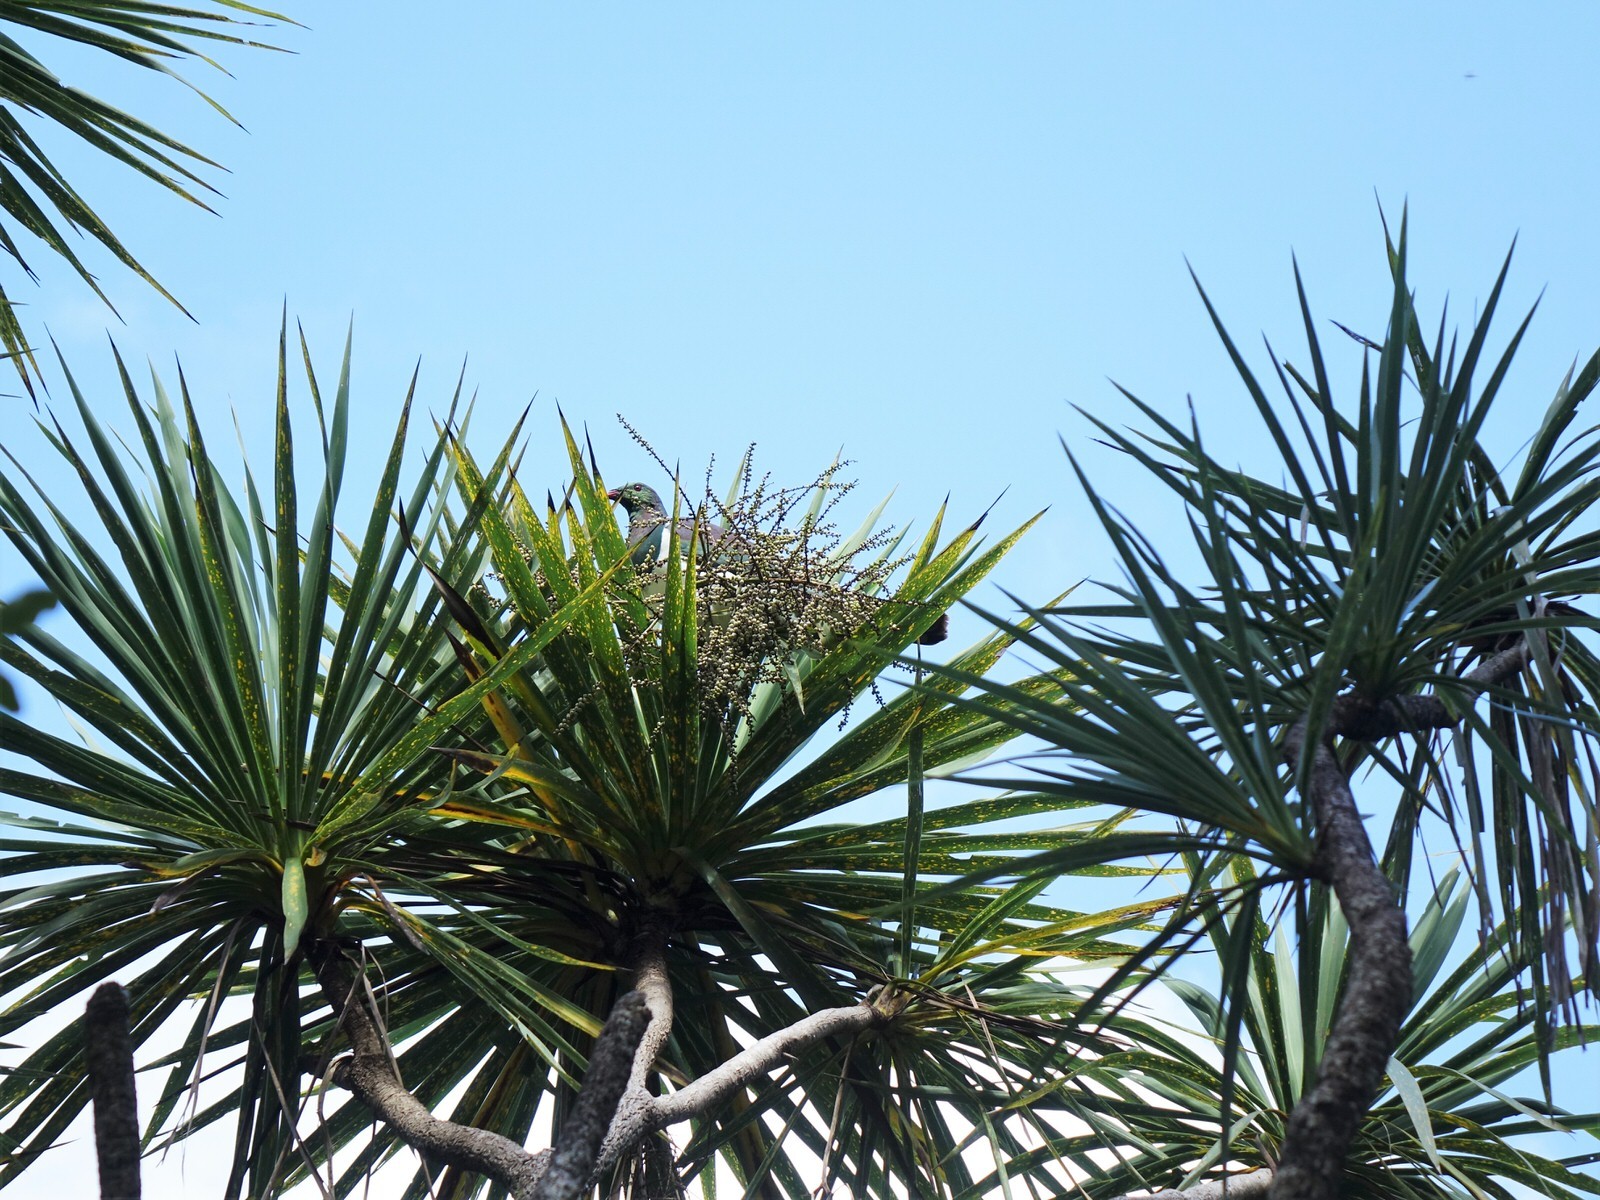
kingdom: Animalia
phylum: Chordata
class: Aves
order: Columbiformes
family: Columbidae
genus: Hemiphaga
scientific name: Hemiphaga novaeseelandiae
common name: New zealand pigeon
